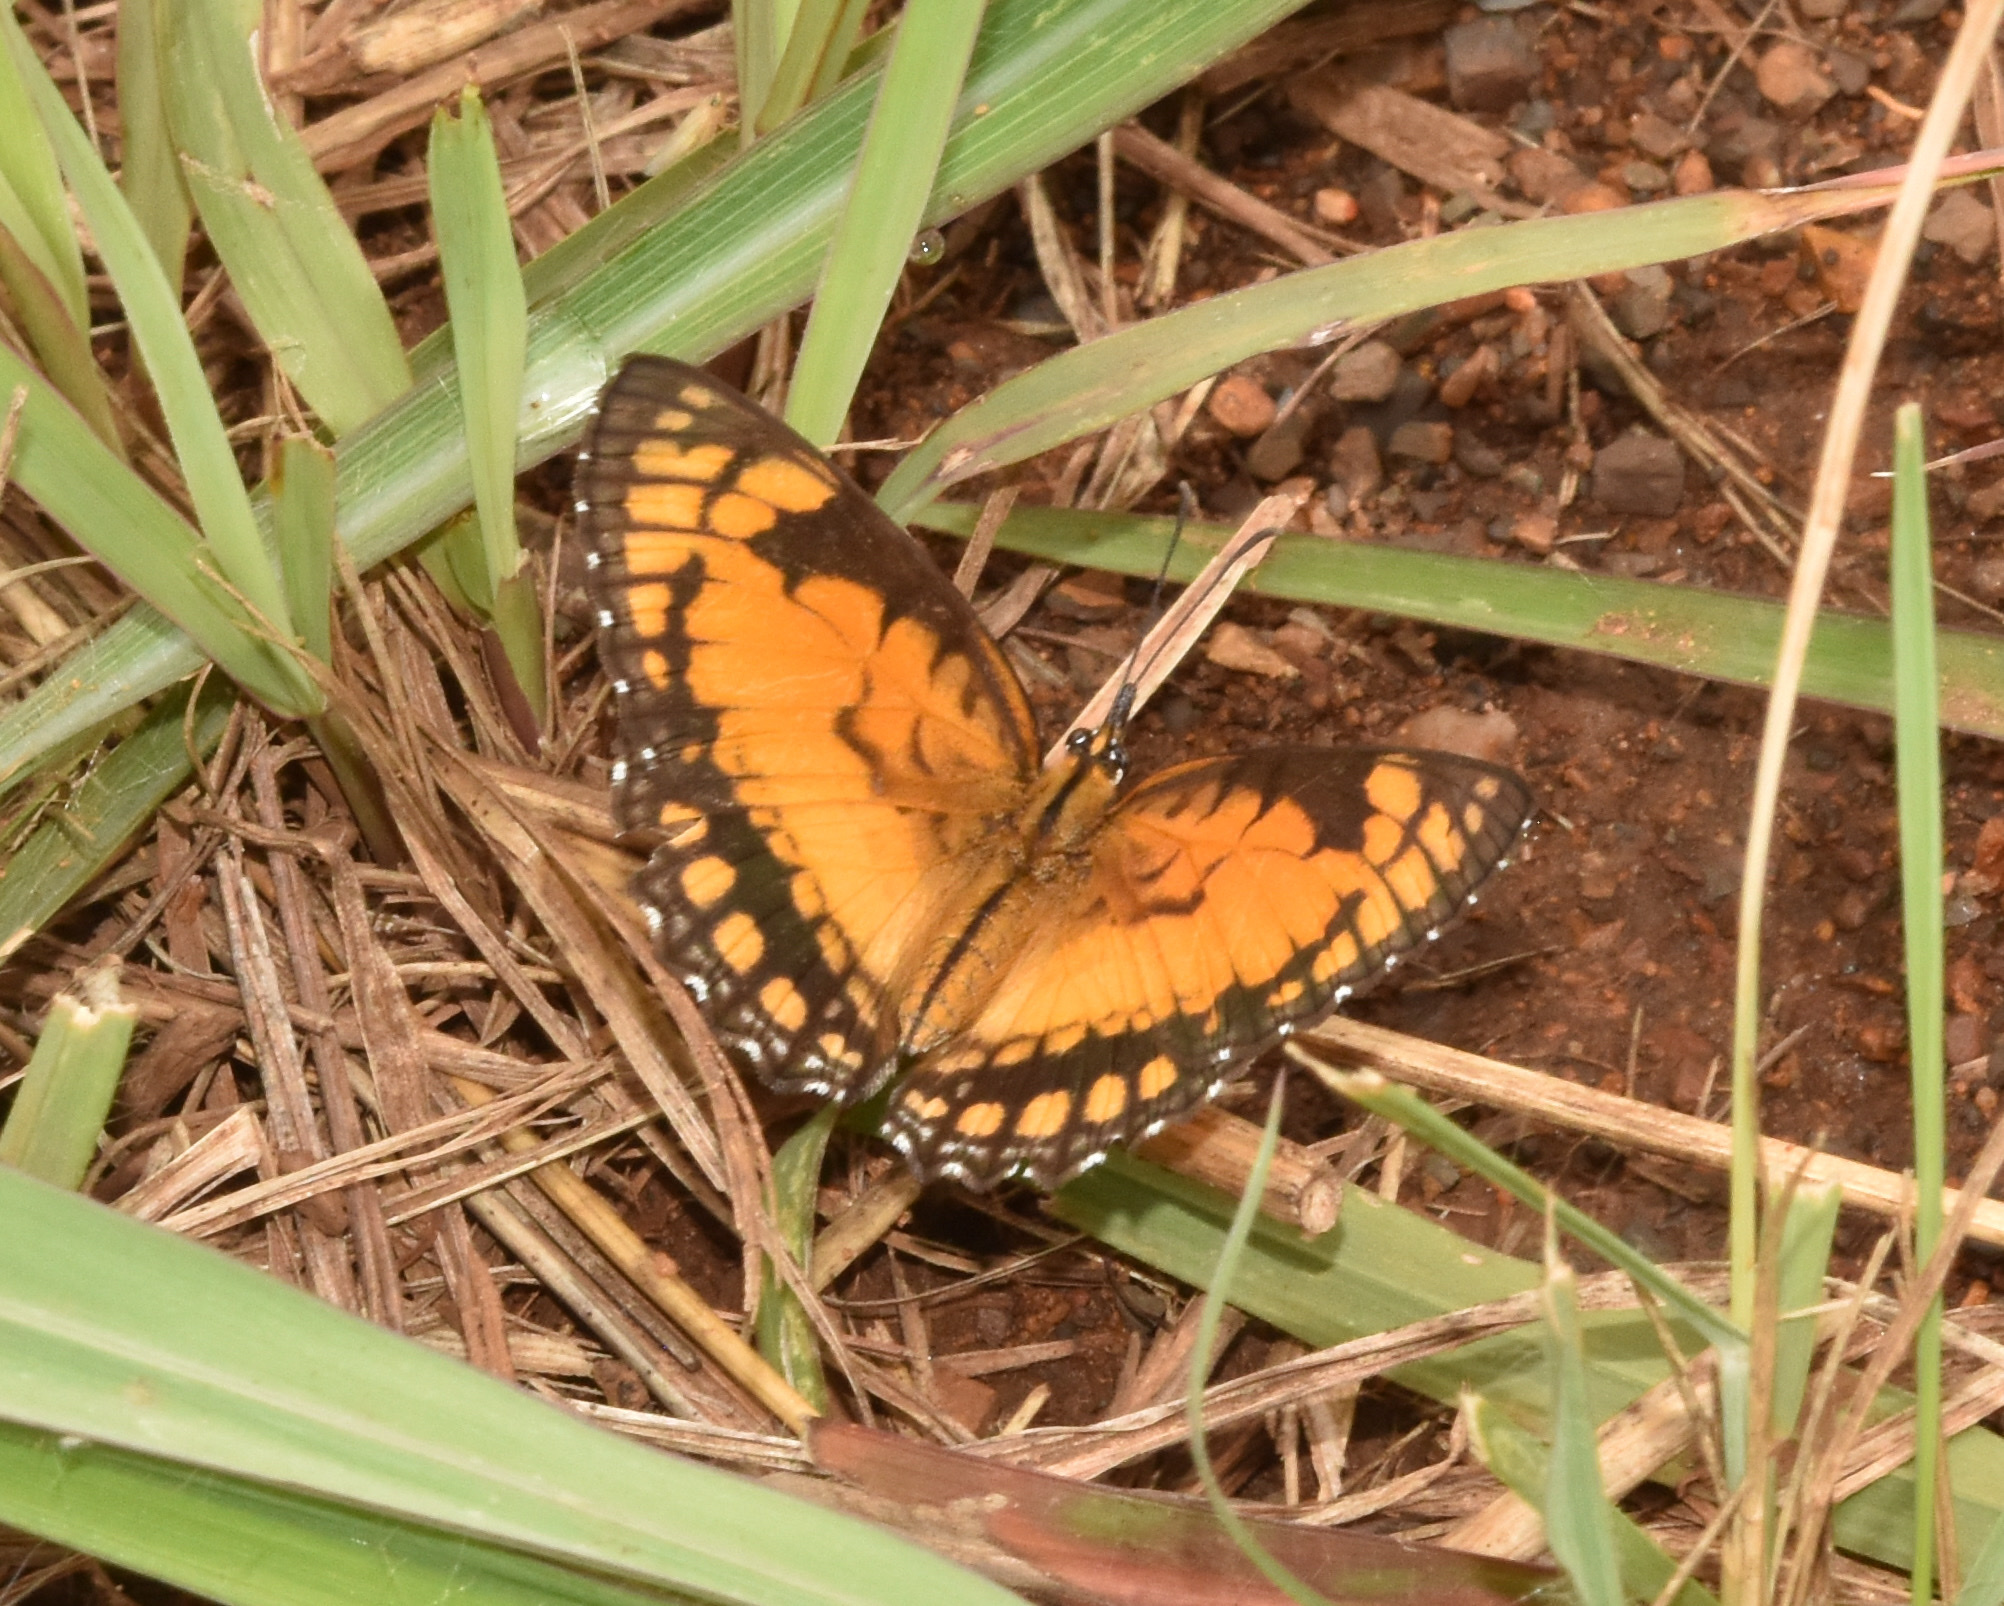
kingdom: Animalia
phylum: Arthropoda
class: Insecta
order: Lepidoptera
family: Nymphalidae
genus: Byblia
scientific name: Byblia acheloia
